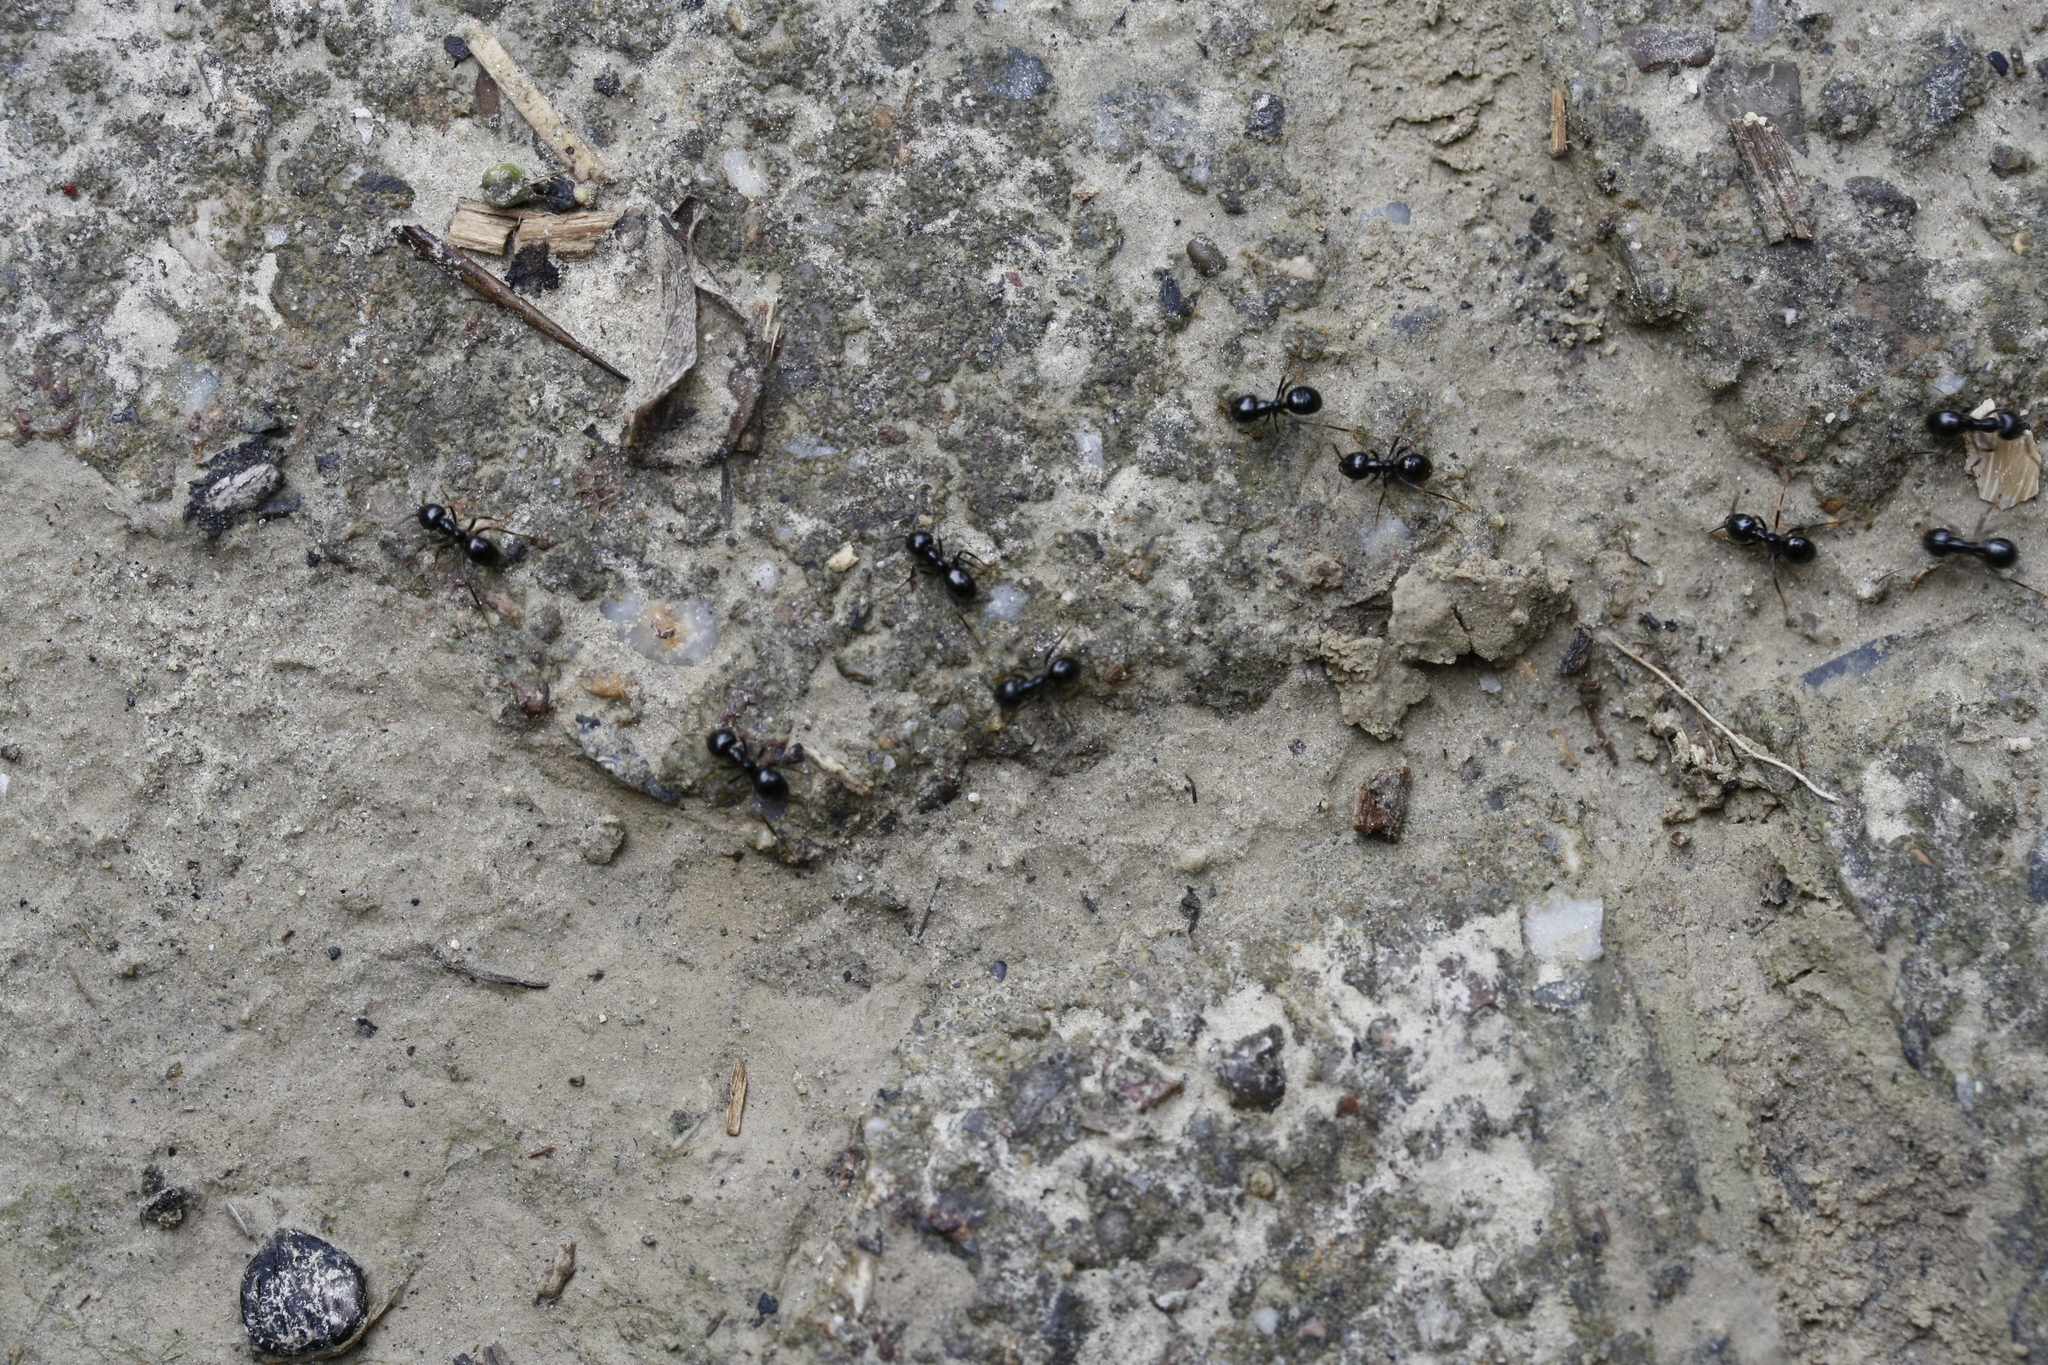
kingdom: Animalia
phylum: Arthropoda
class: Insecta
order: Hymenoptera
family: Formicidae
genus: Lasius
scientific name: Lasius fuliginosus
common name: Jet ant
